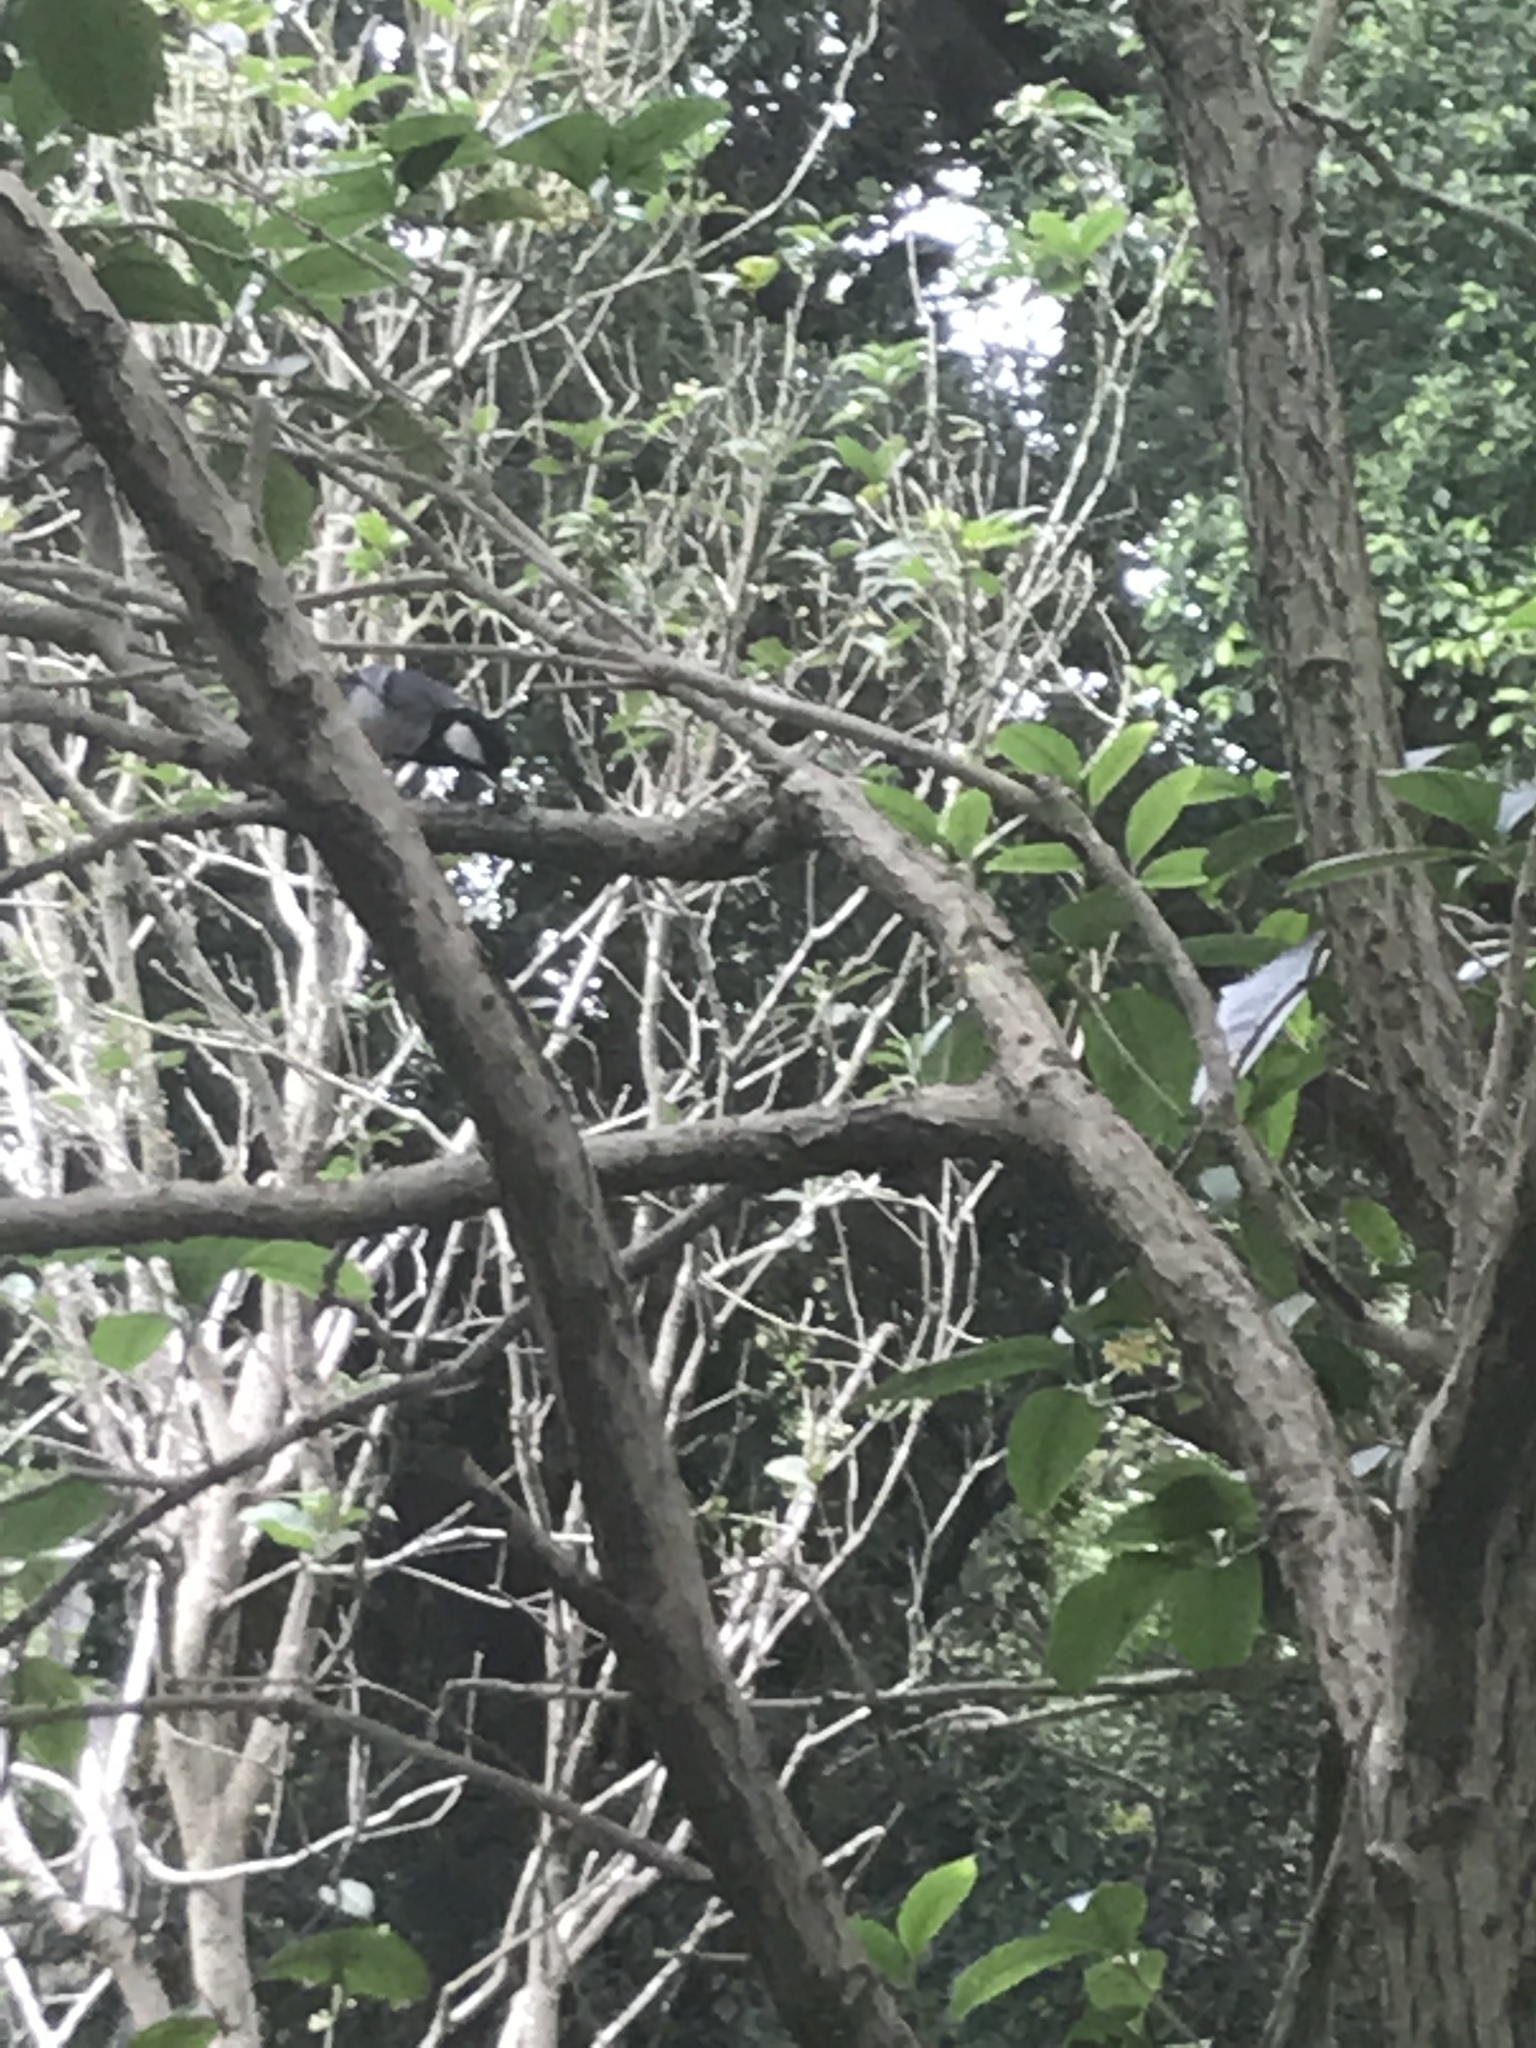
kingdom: Animalia
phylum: Chordata
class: Aves
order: Passeriformes
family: Paridae
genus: Parus
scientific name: Parus minor
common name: Japanese tit
